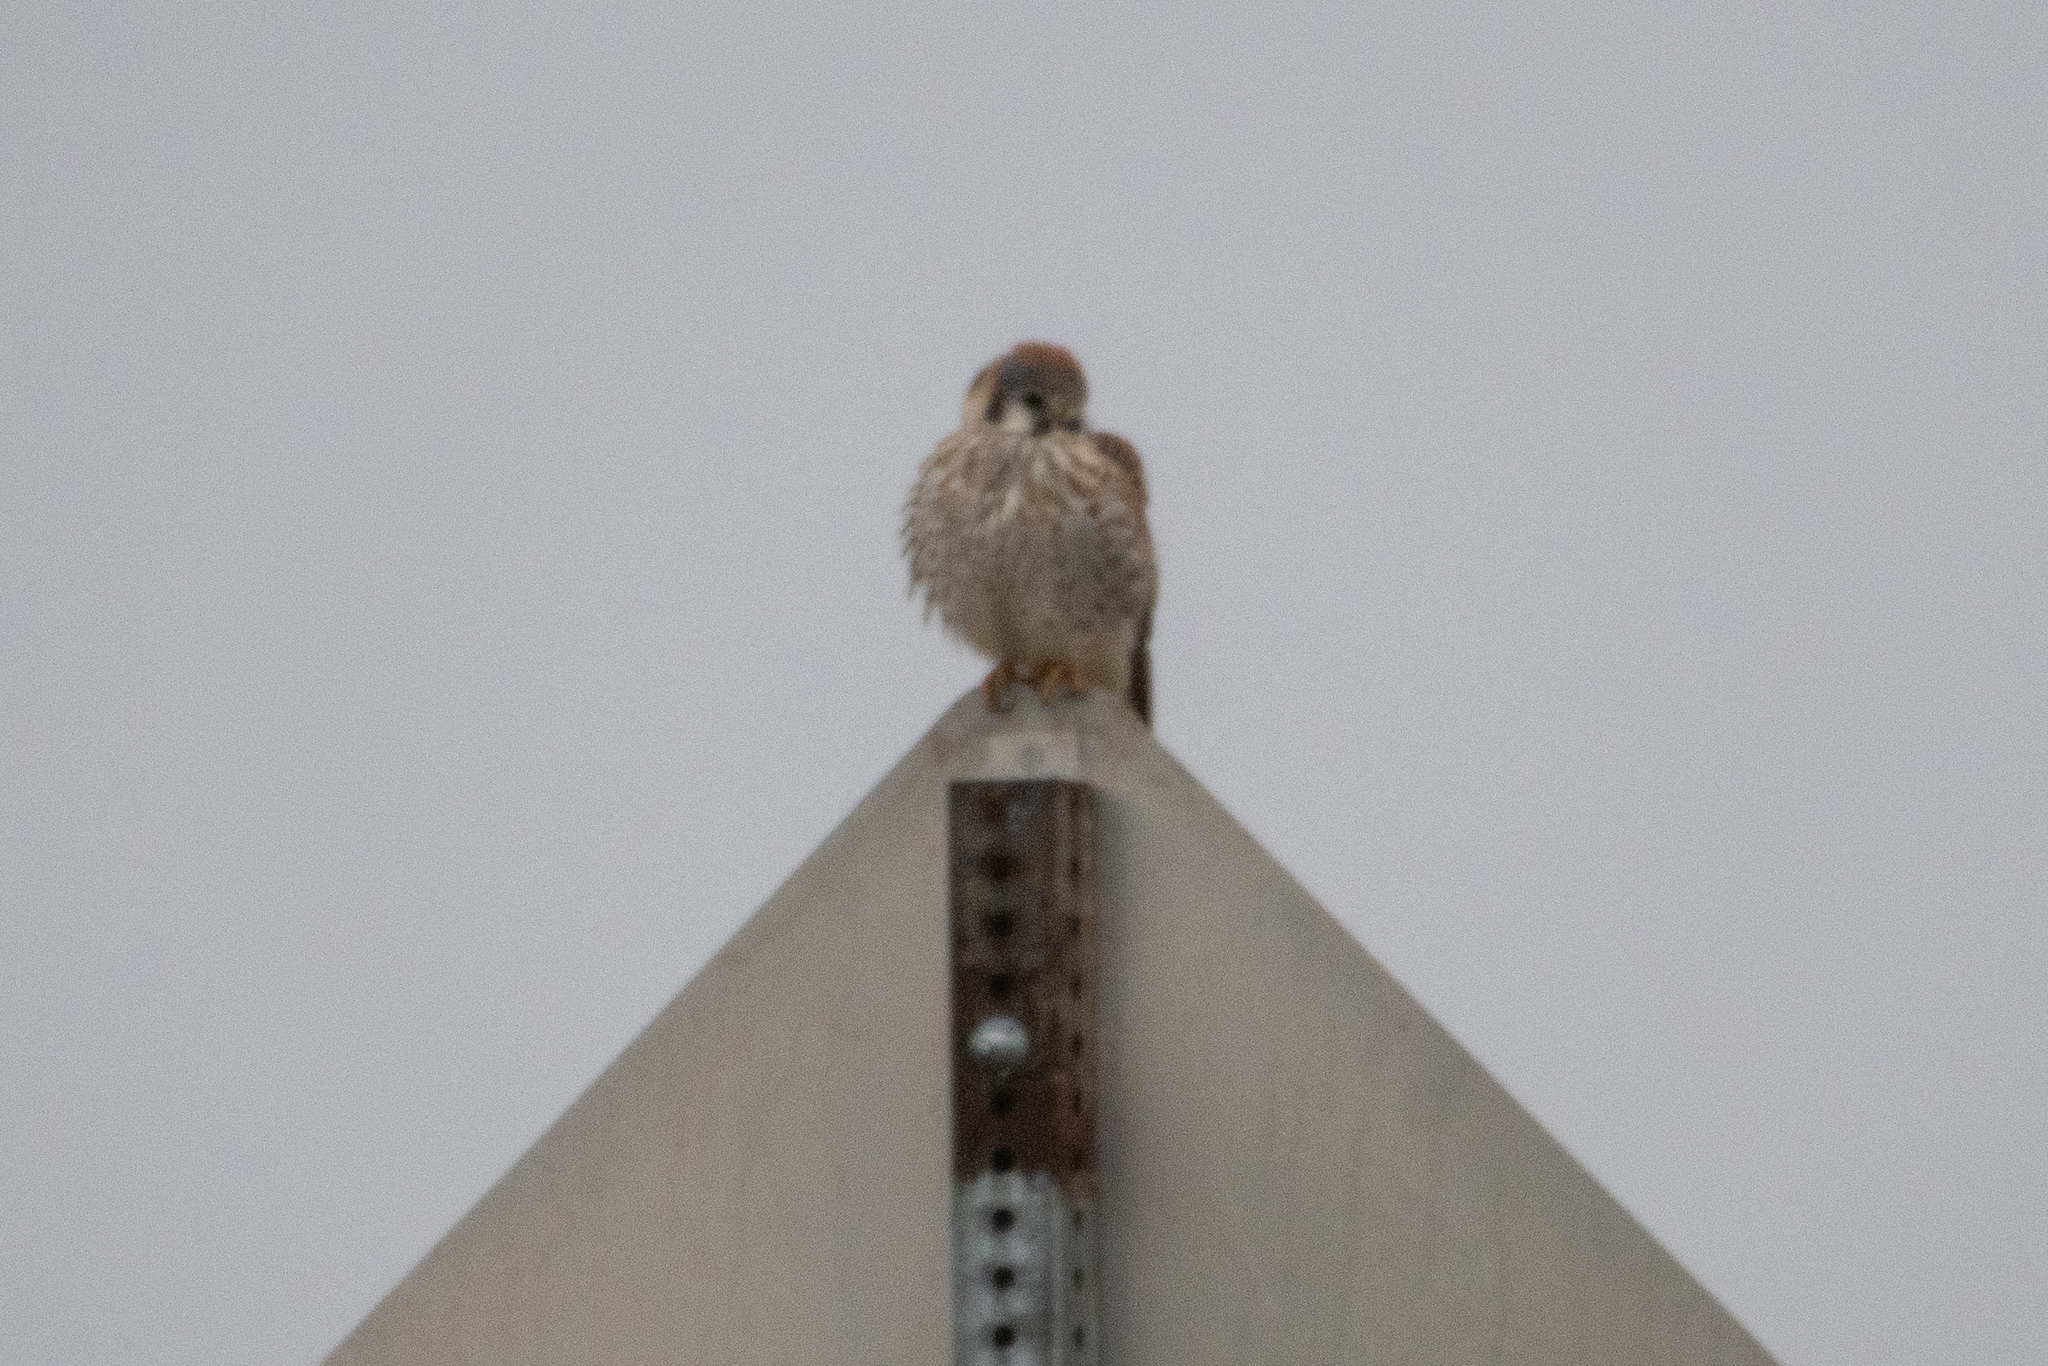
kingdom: Animalia
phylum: Chordata
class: Aves
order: Falconiformes
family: Falconidae
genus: Falco
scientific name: Falco sparverius
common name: American kestrel
